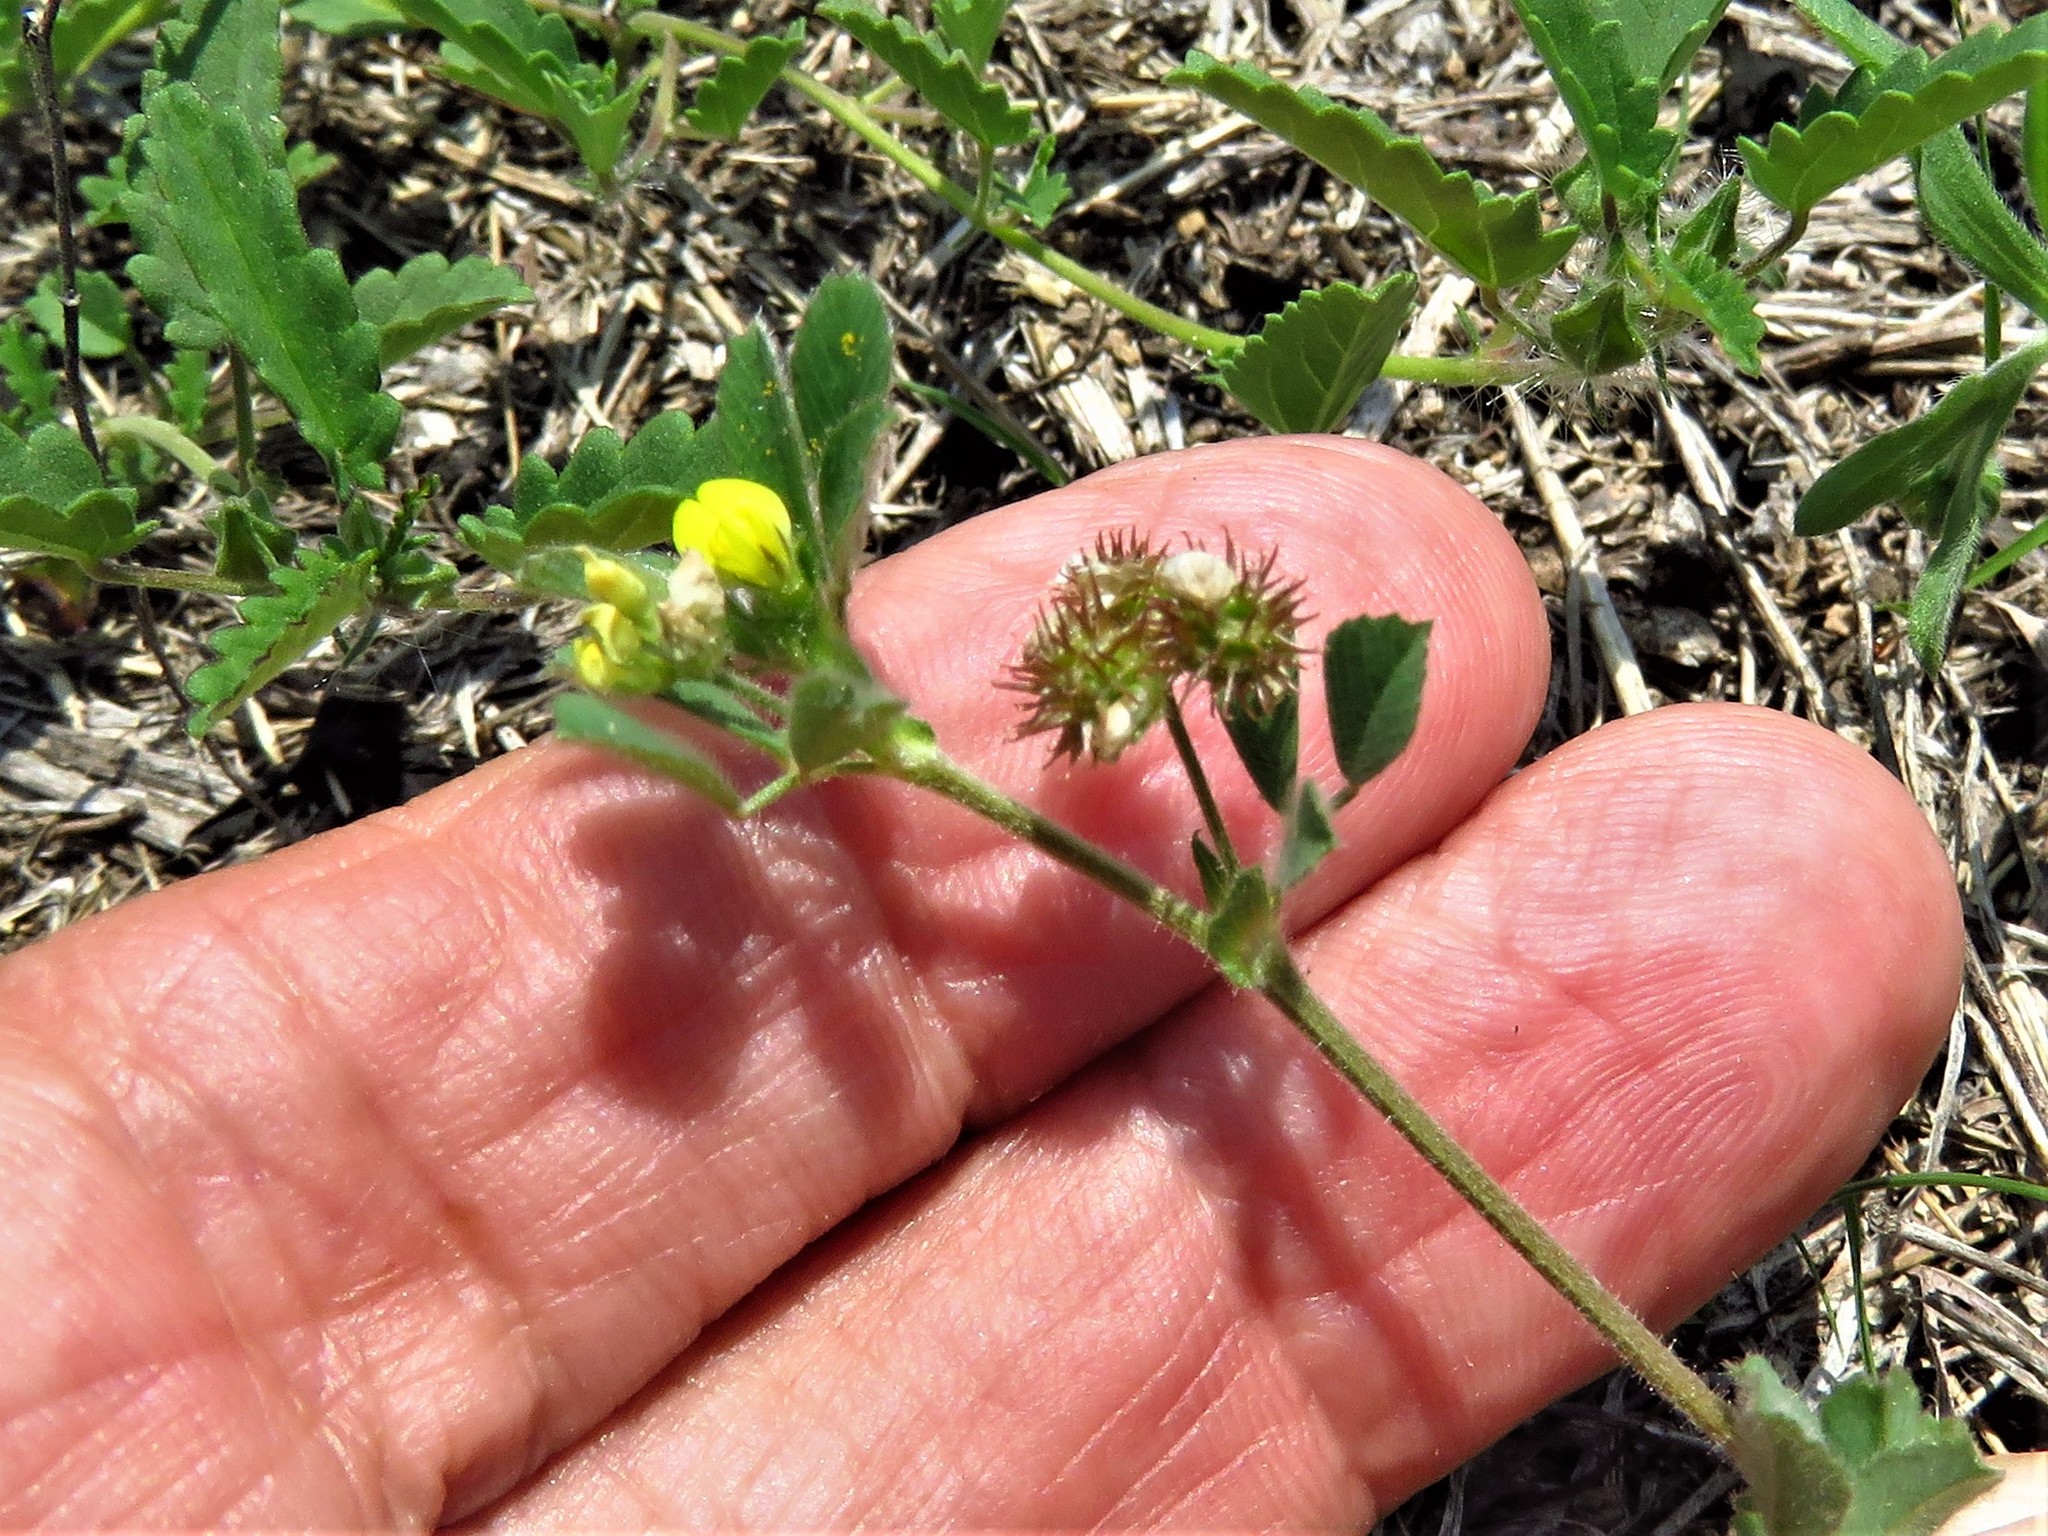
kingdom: Plantae
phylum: Tracheophyta
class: Magnoliopsida
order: Fabales
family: Fabaceae
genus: Medicago
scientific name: Medicago minima
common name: Little bur-clover
